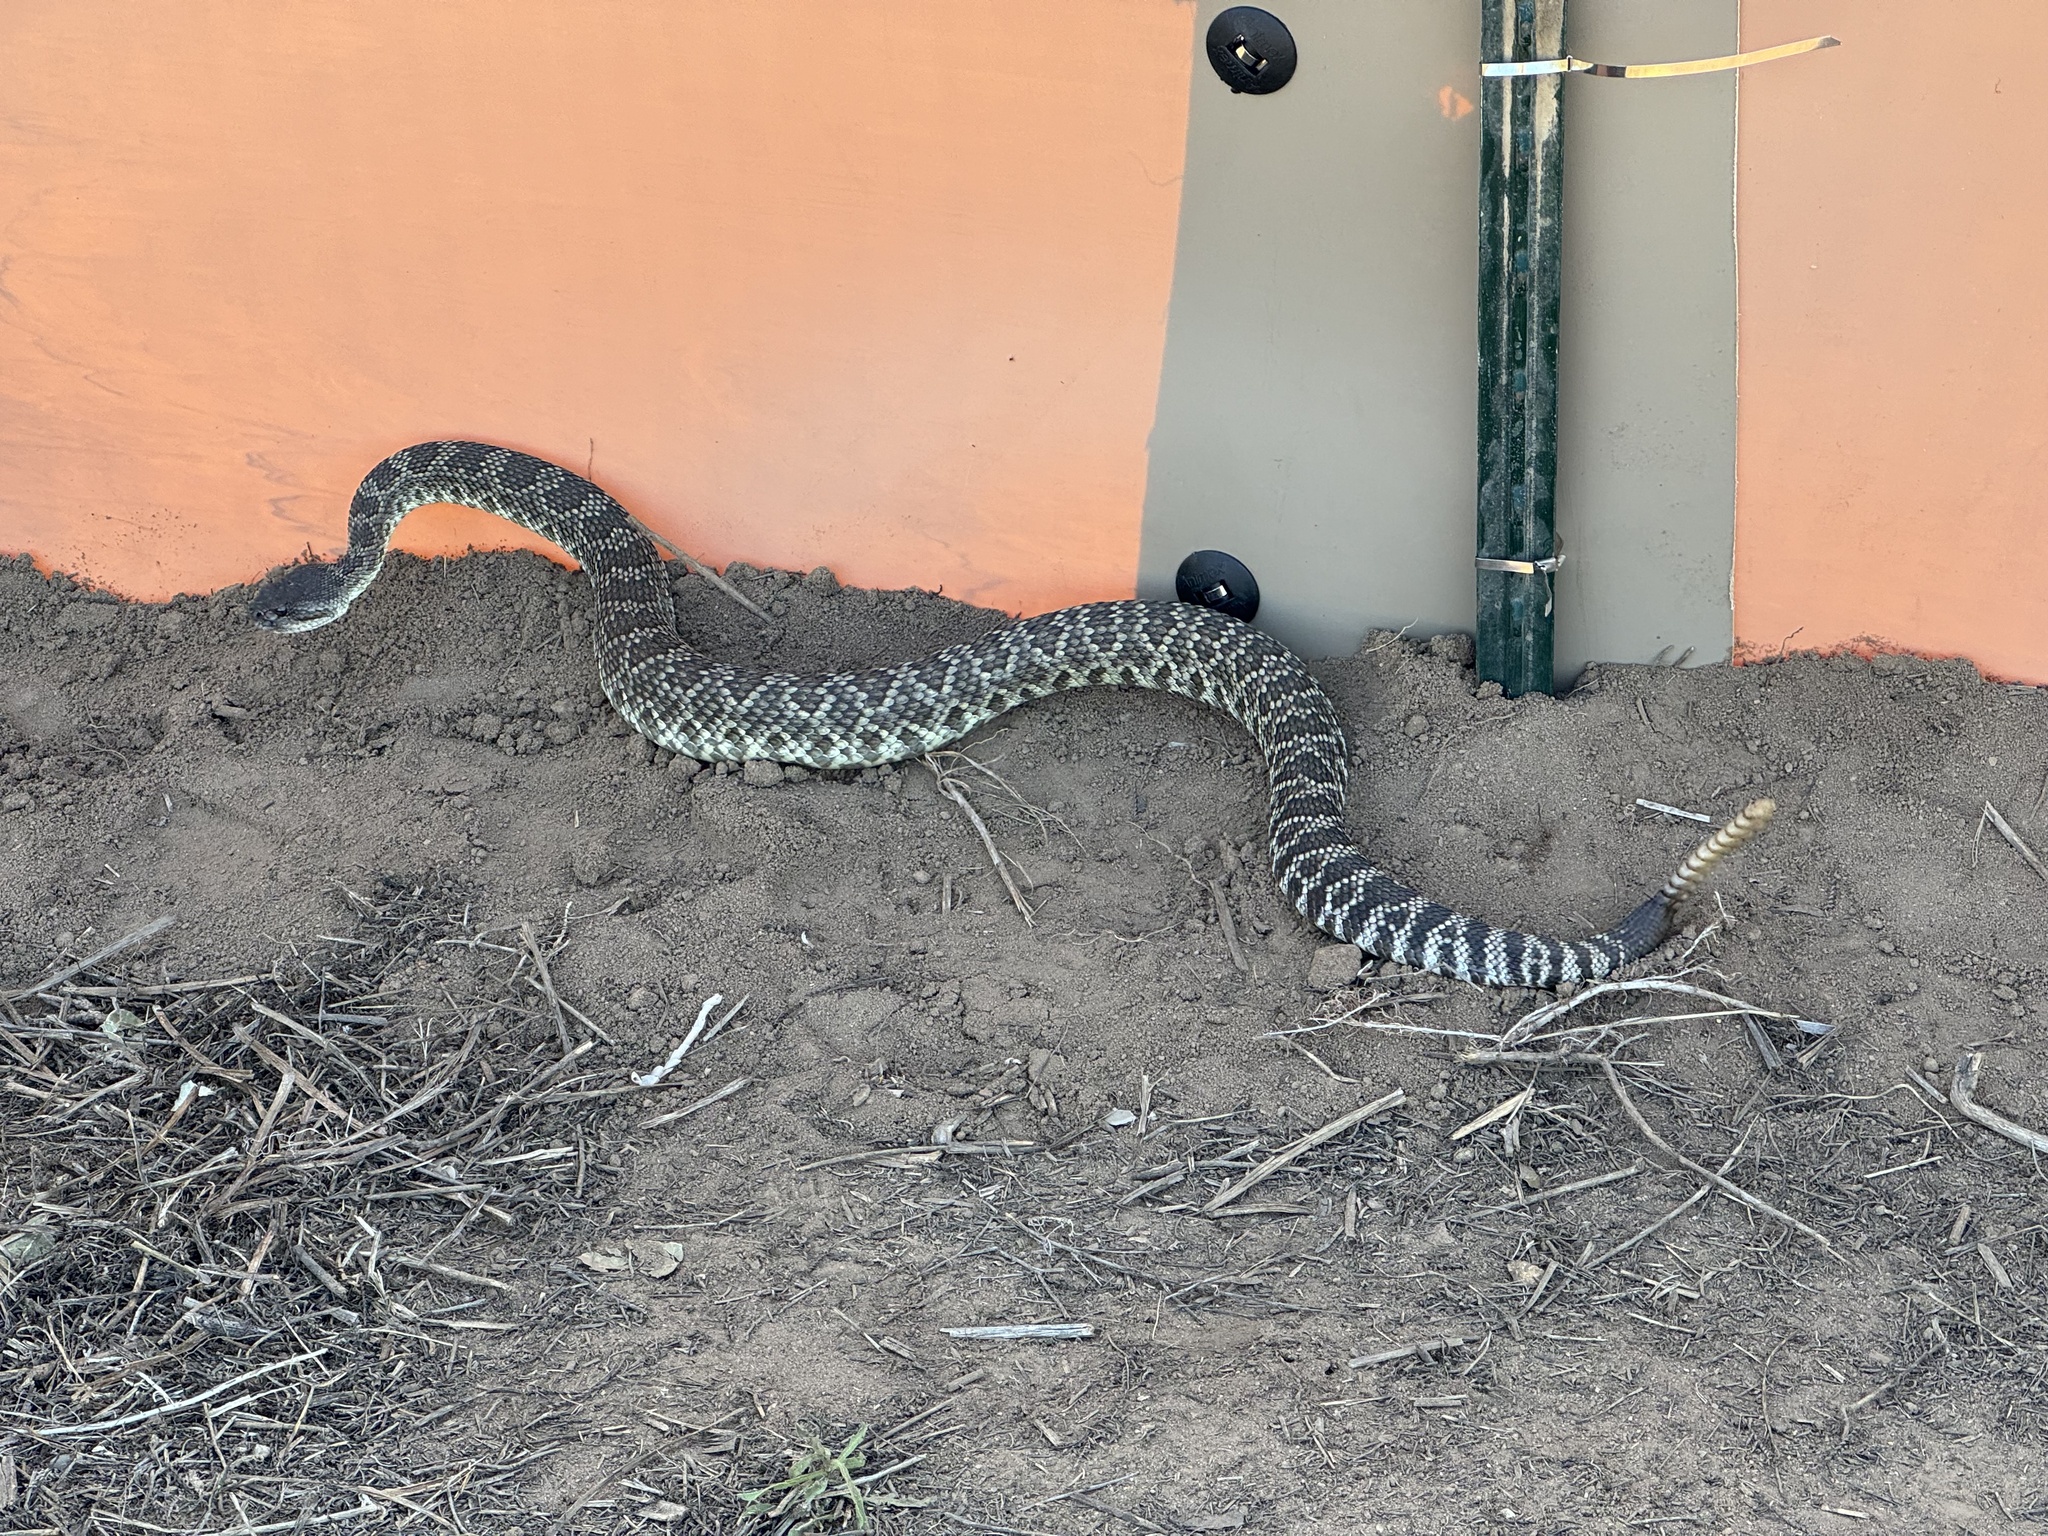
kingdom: Animalia
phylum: Chordata
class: Squamata
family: Viperidae
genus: Crotalus
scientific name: Crotalus oreganus
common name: Abyssus
